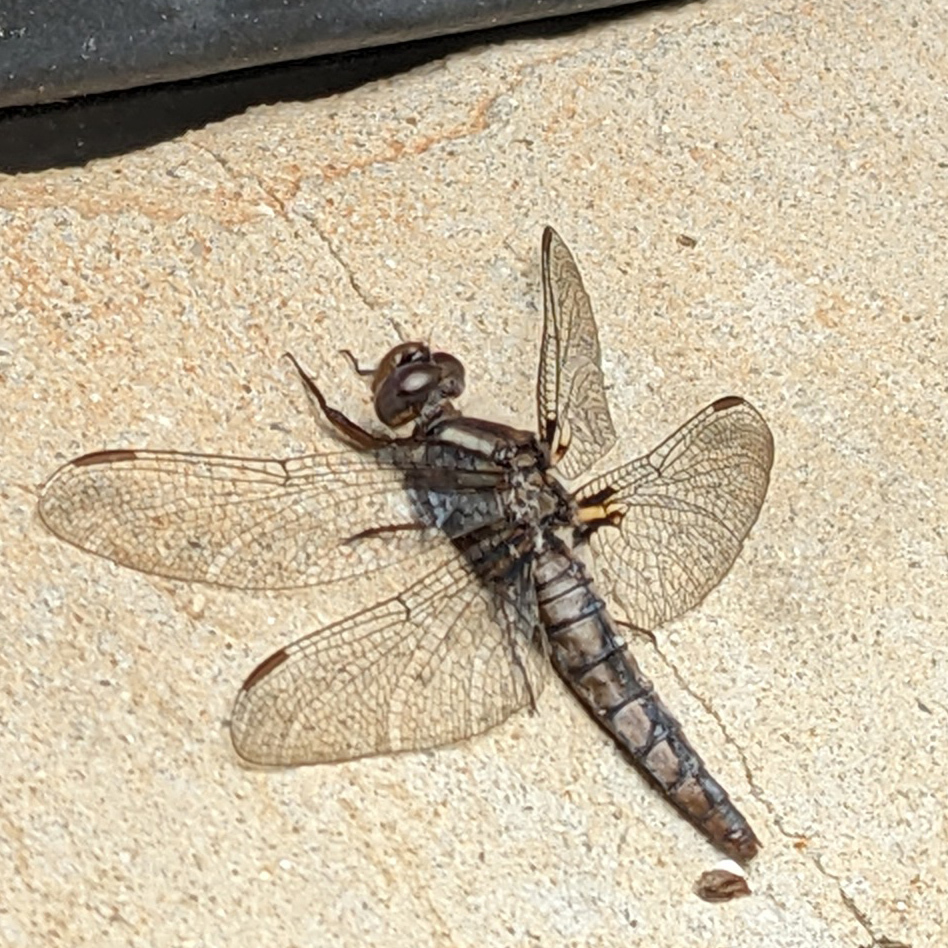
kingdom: Animalia
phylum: Arthropoda
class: Insecta
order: Odonata
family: Libellulidae
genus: Ladona
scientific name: Ladona deplanata
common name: Blue corporal
